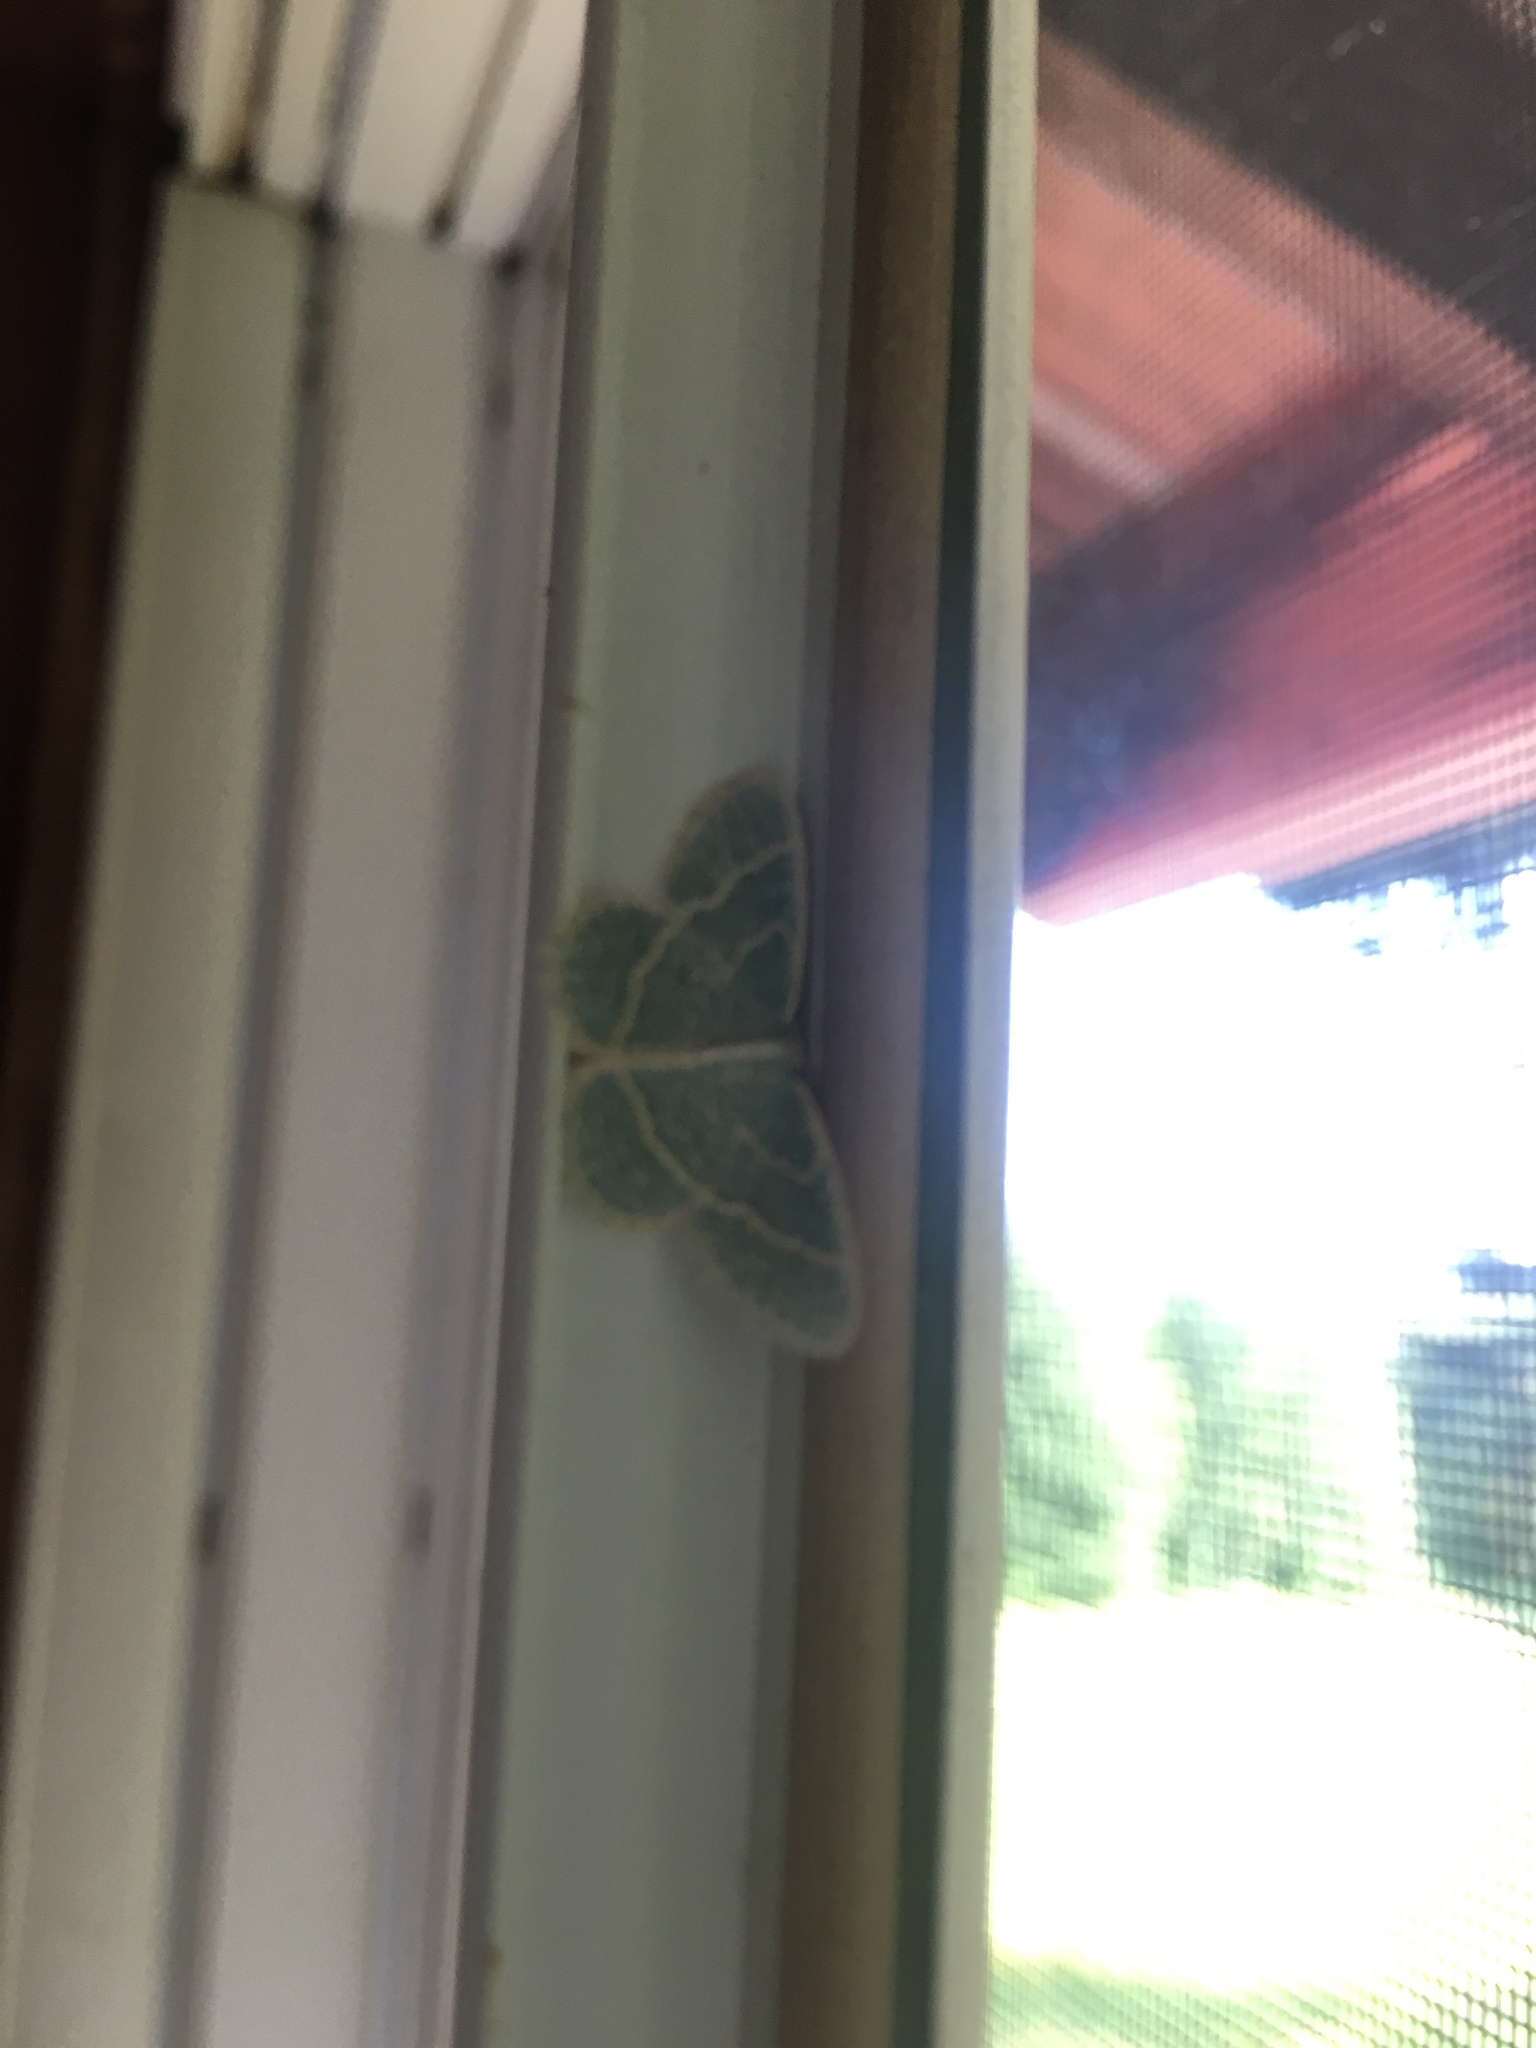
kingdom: Animalia
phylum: Arthropoda
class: Insecta
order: Lepidoptera
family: Geometridae
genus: Chlorochlamys
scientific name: Chlorochlamys chloroleucaria
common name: Blackberry looper
